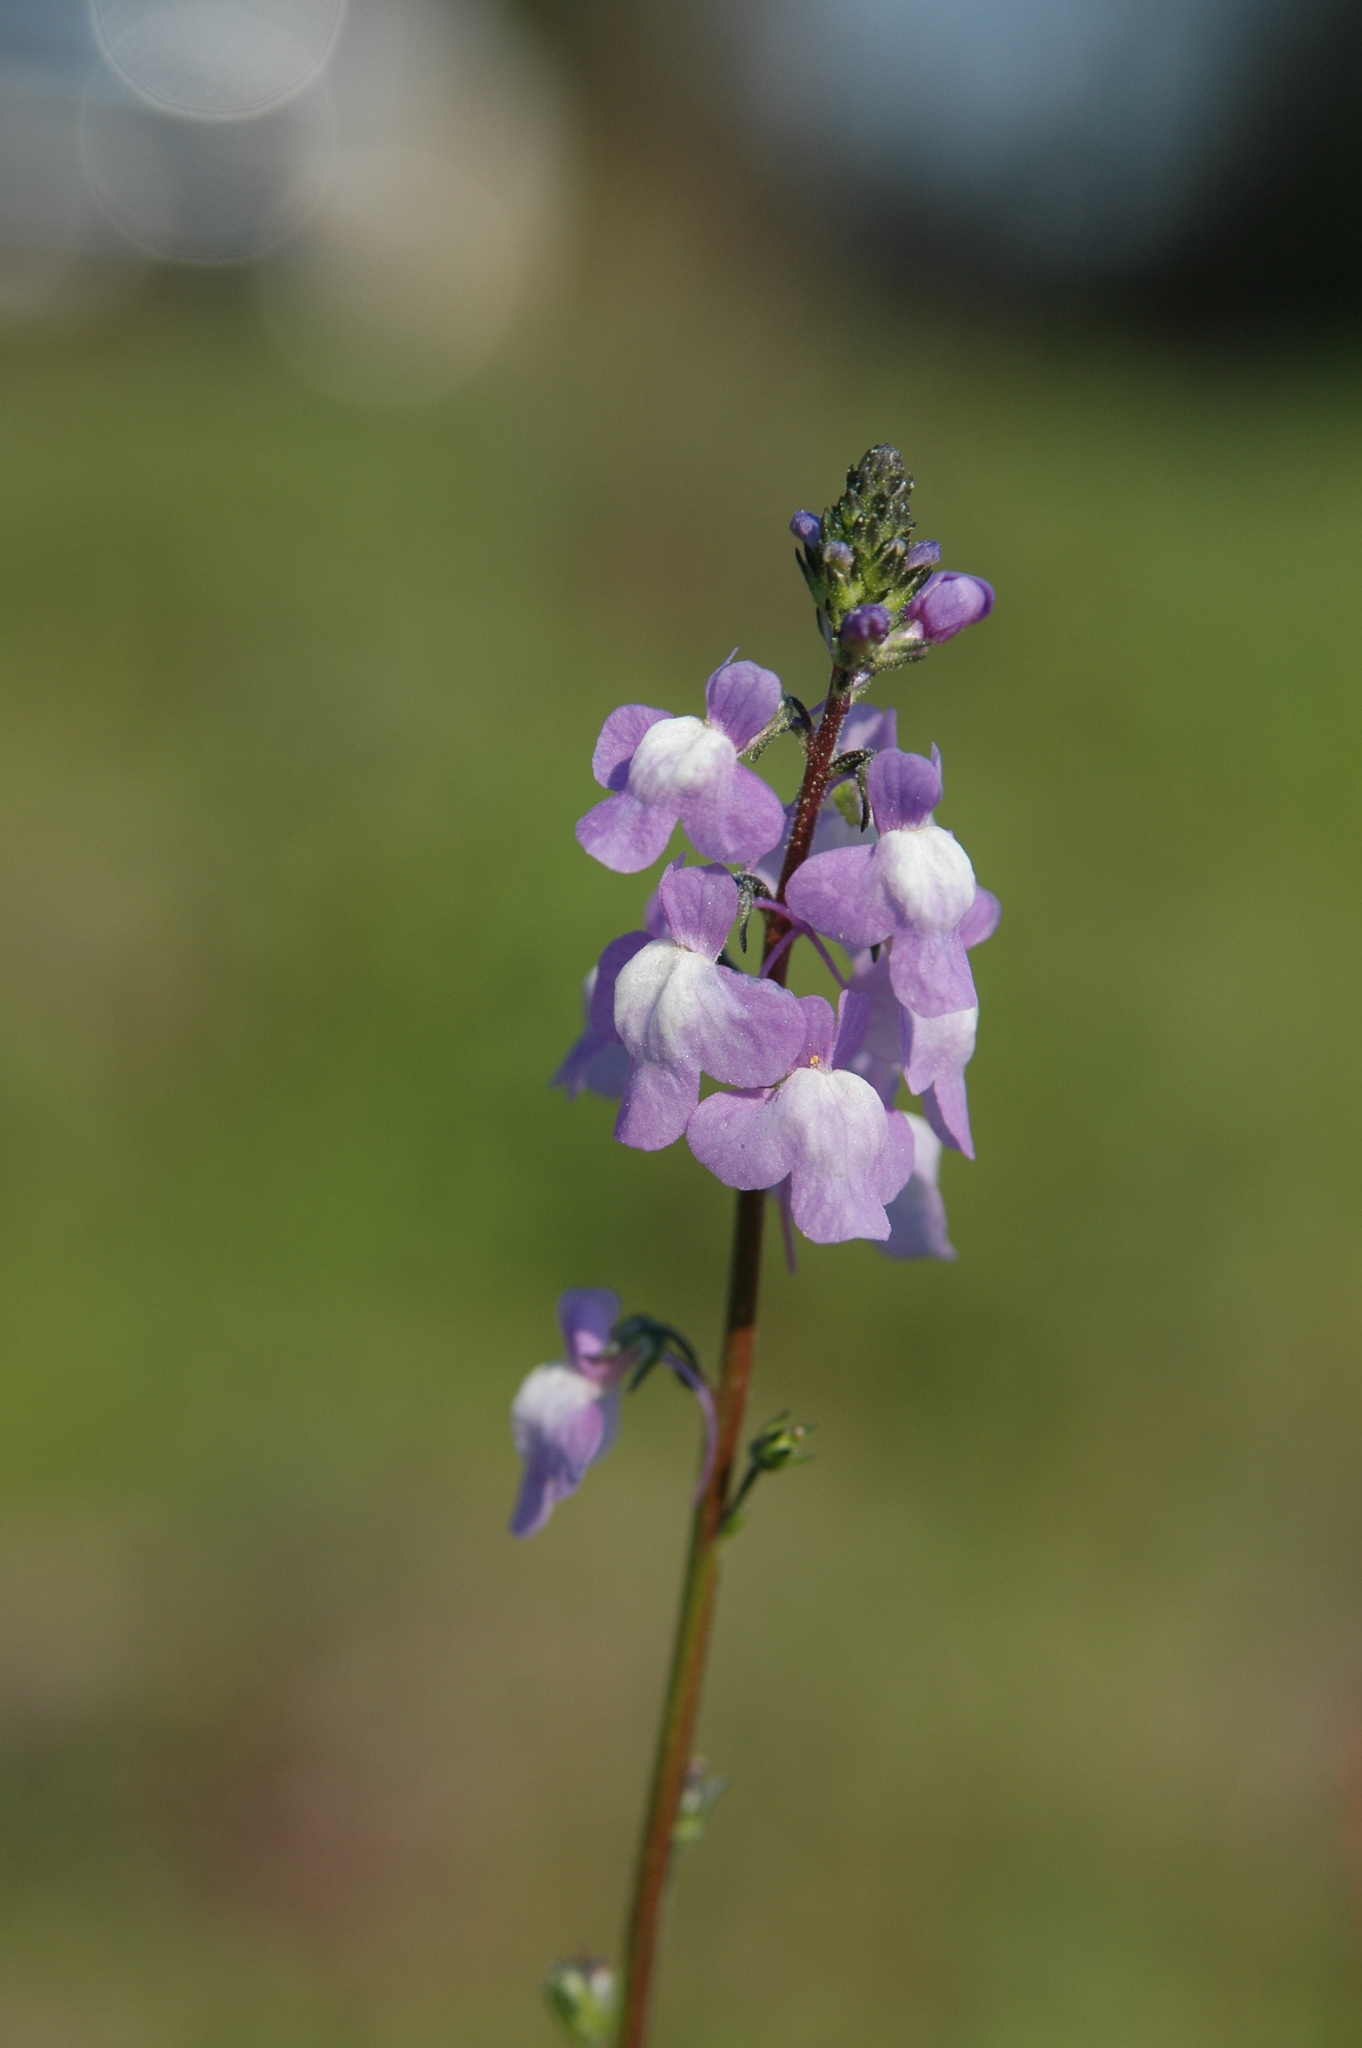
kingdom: Plantae
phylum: Tracheophyta
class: Magnoliopsida
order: Lamiales
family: Plantaginaceae
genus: Nuttallanthus
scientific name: Nuttallanthus canadensis
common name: Blue toadflax
